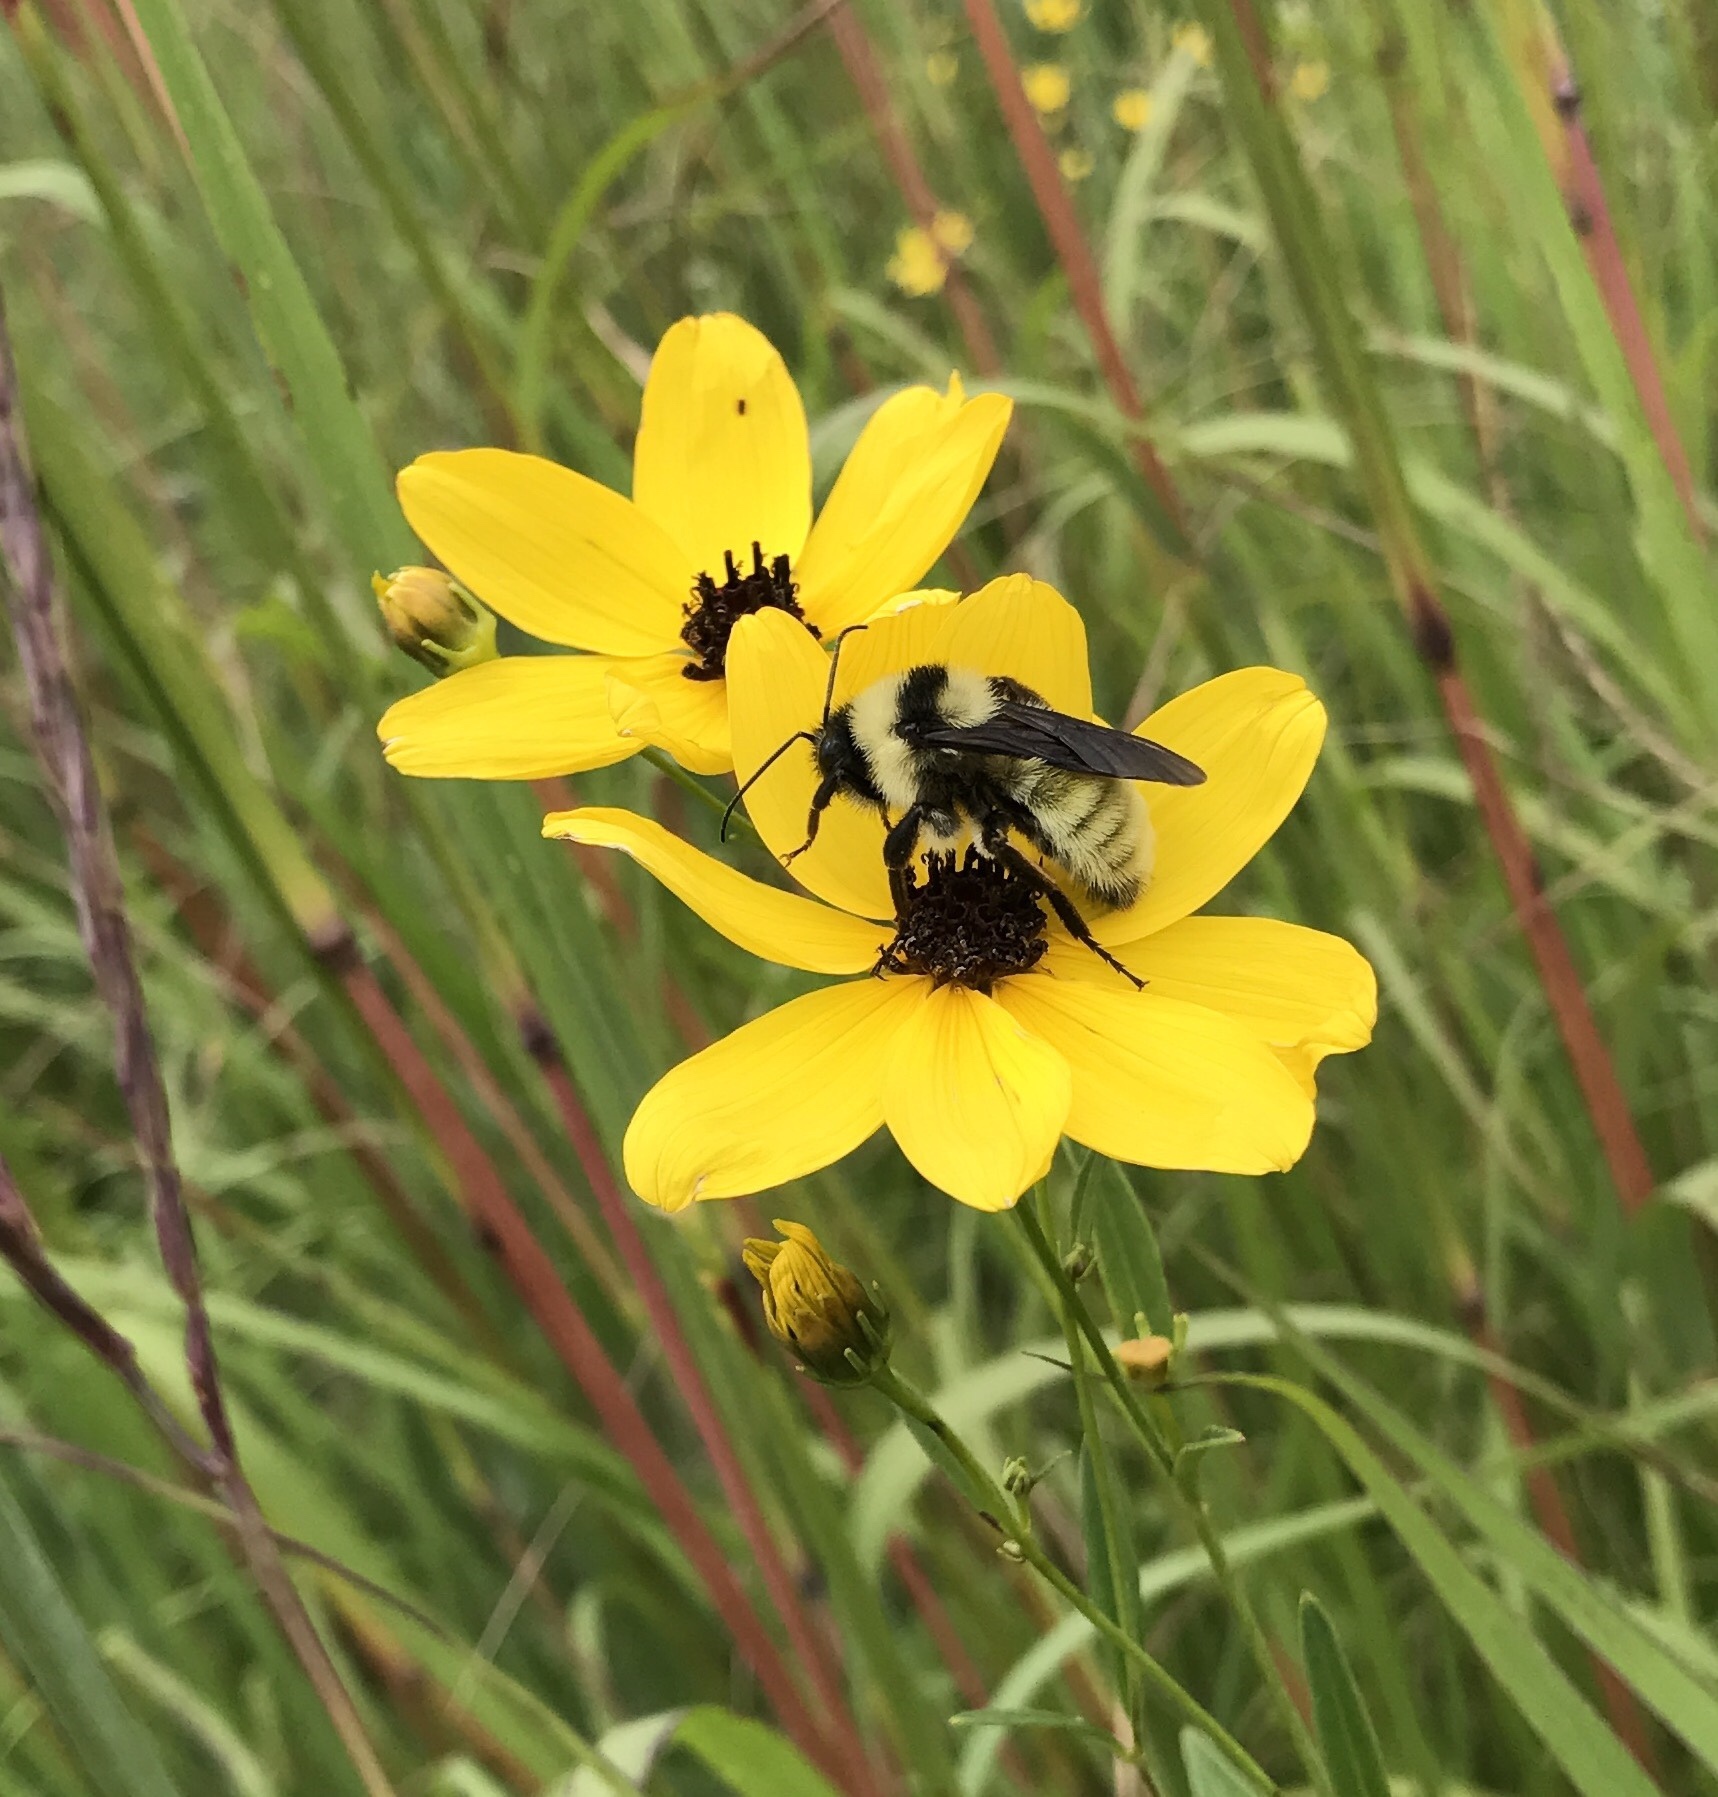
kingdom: Animalia
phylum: Arthropoda
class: Insecta
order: Hymenoptera
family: Apidae
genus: Bombus
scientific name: Bombus fervidus
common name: Yellow bumble bee
